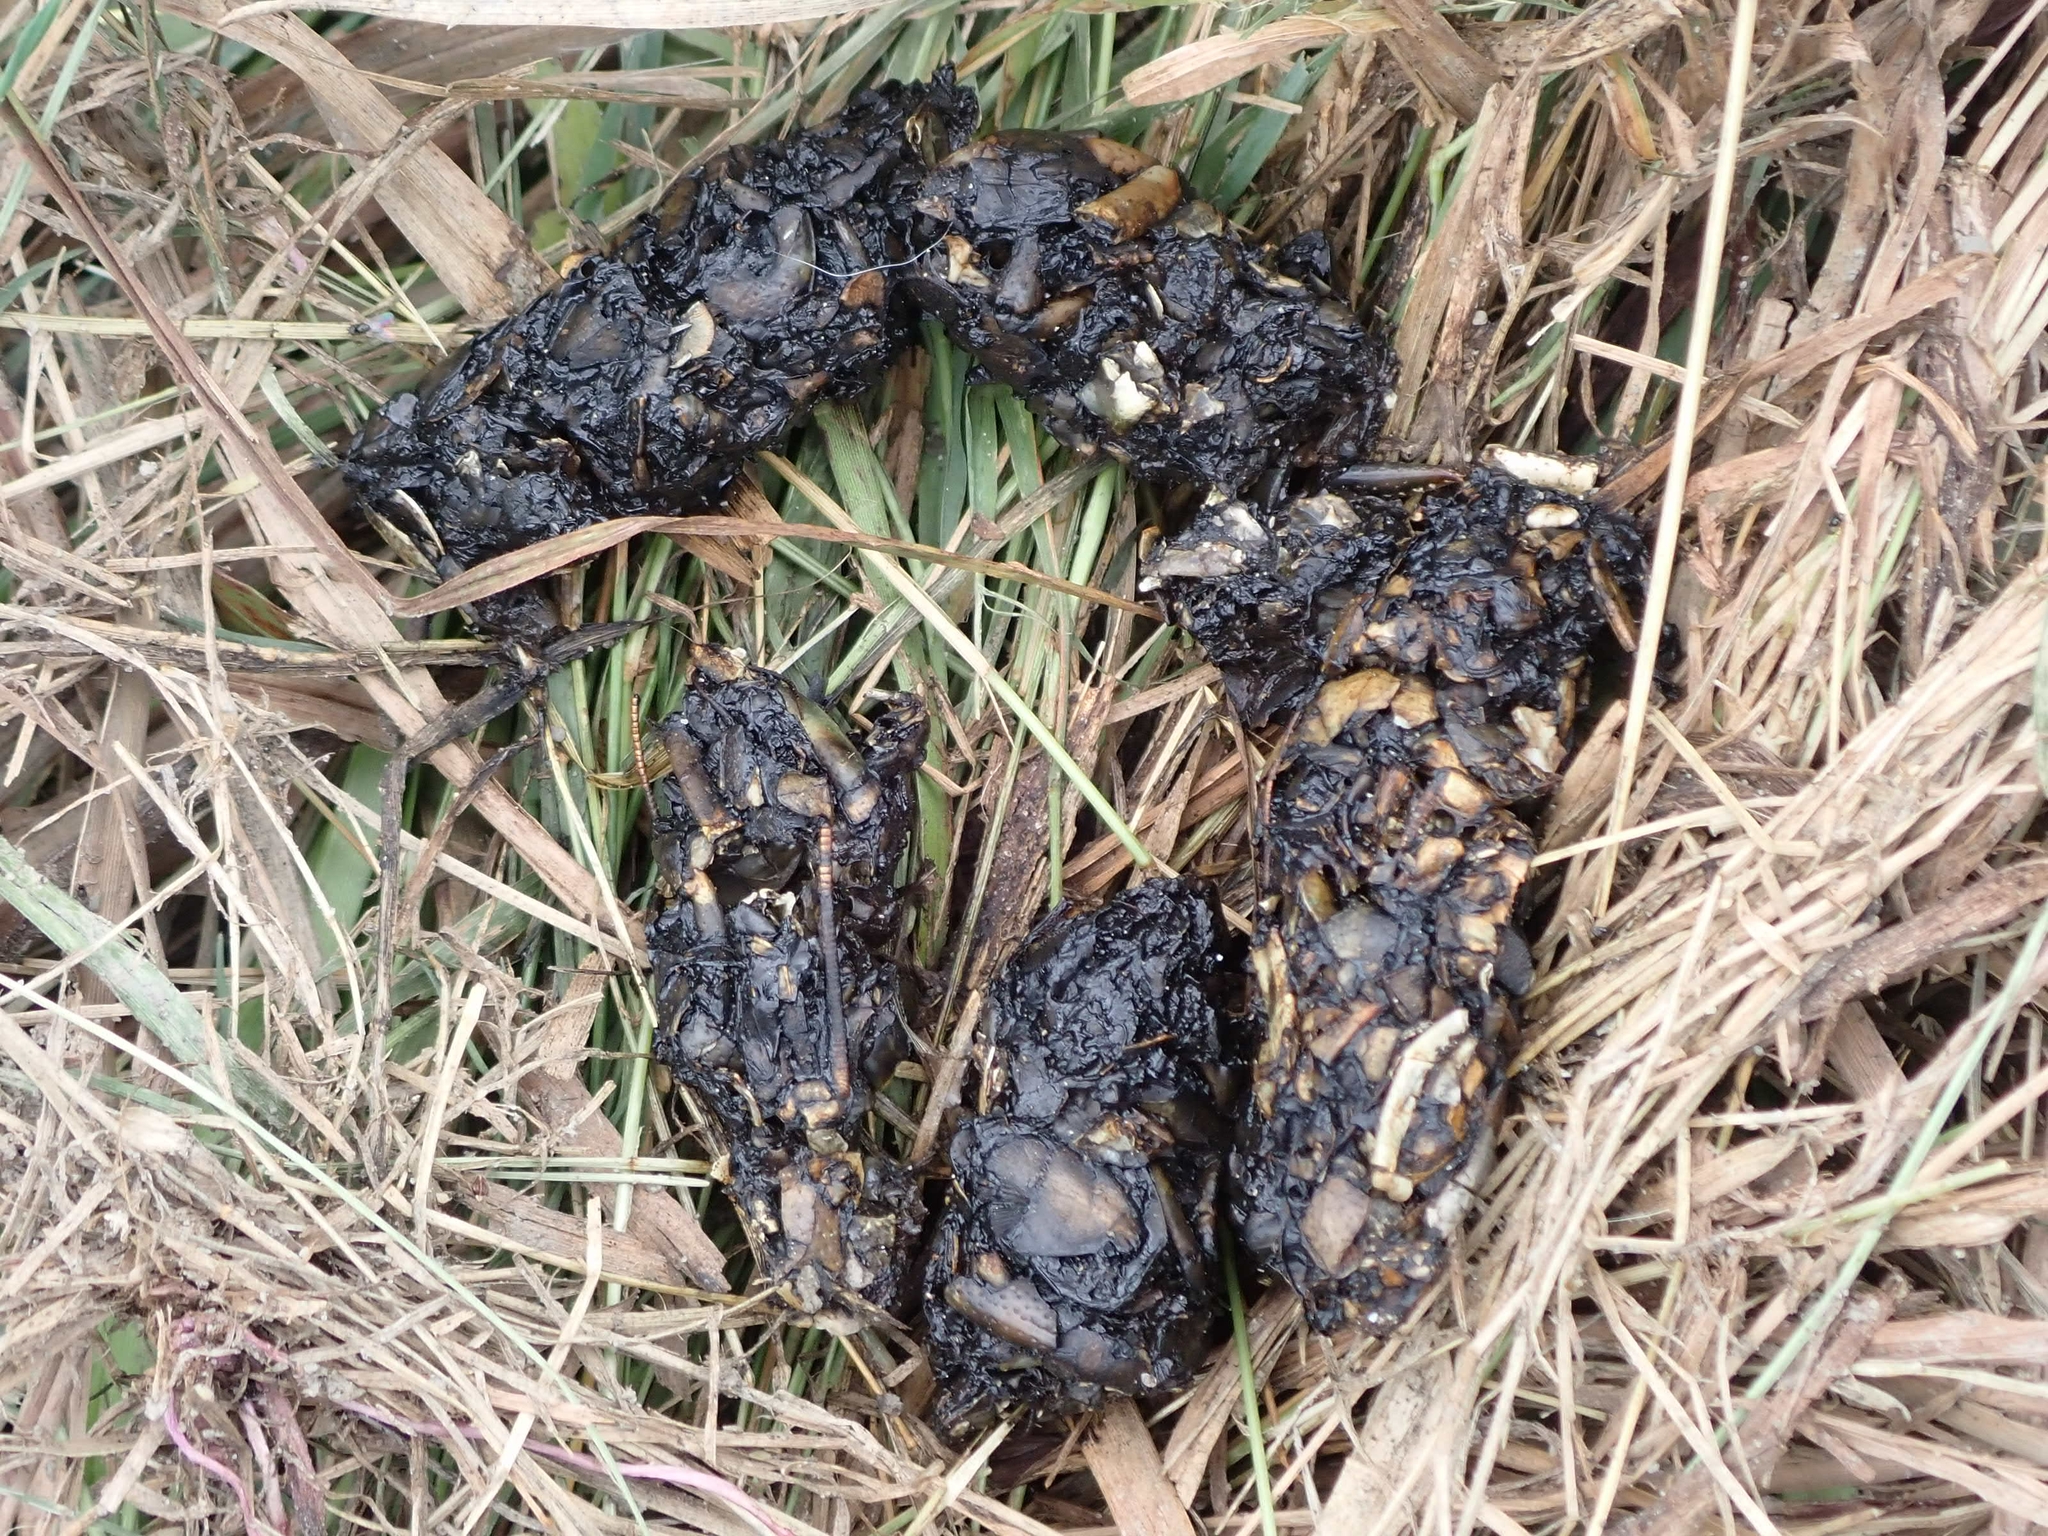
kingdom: Animalia
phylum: Chordata
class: Mammalia
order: Carnivora
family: Procyonidae
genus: Procyon
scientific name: Procyon lotor
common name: Raccoon
